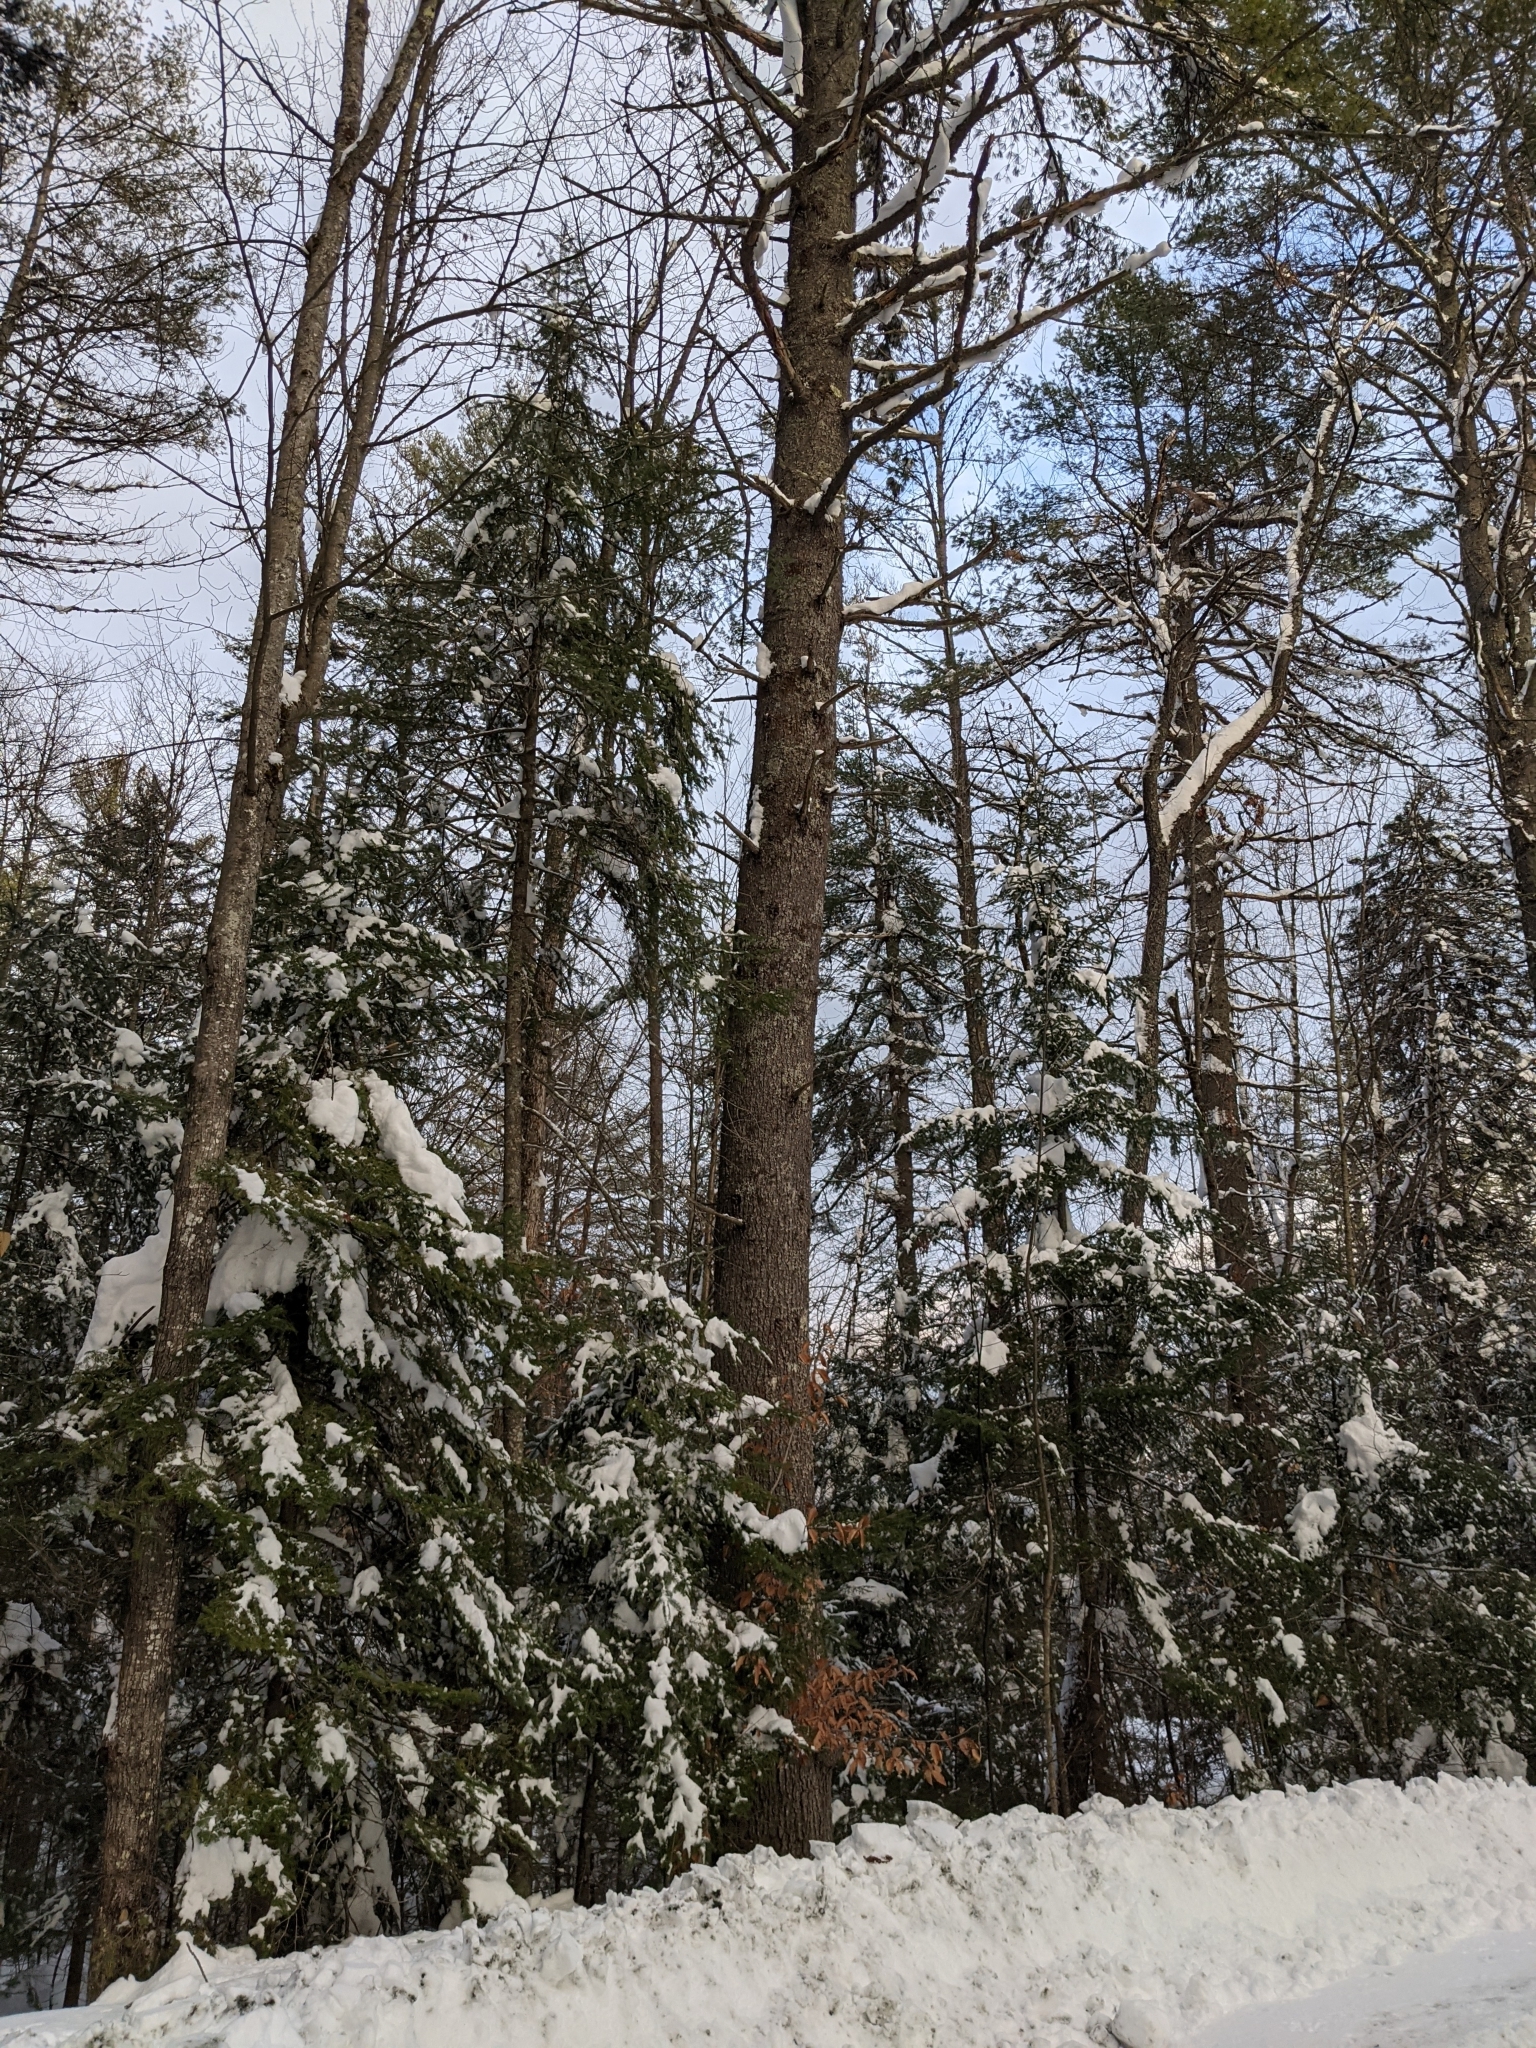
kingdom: Plantae
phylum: Tracheophyta
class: Pinopsida
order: Pinales
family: Pinaceae
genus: Pinus
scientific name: Pinus strobus
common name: Weymouth pine
